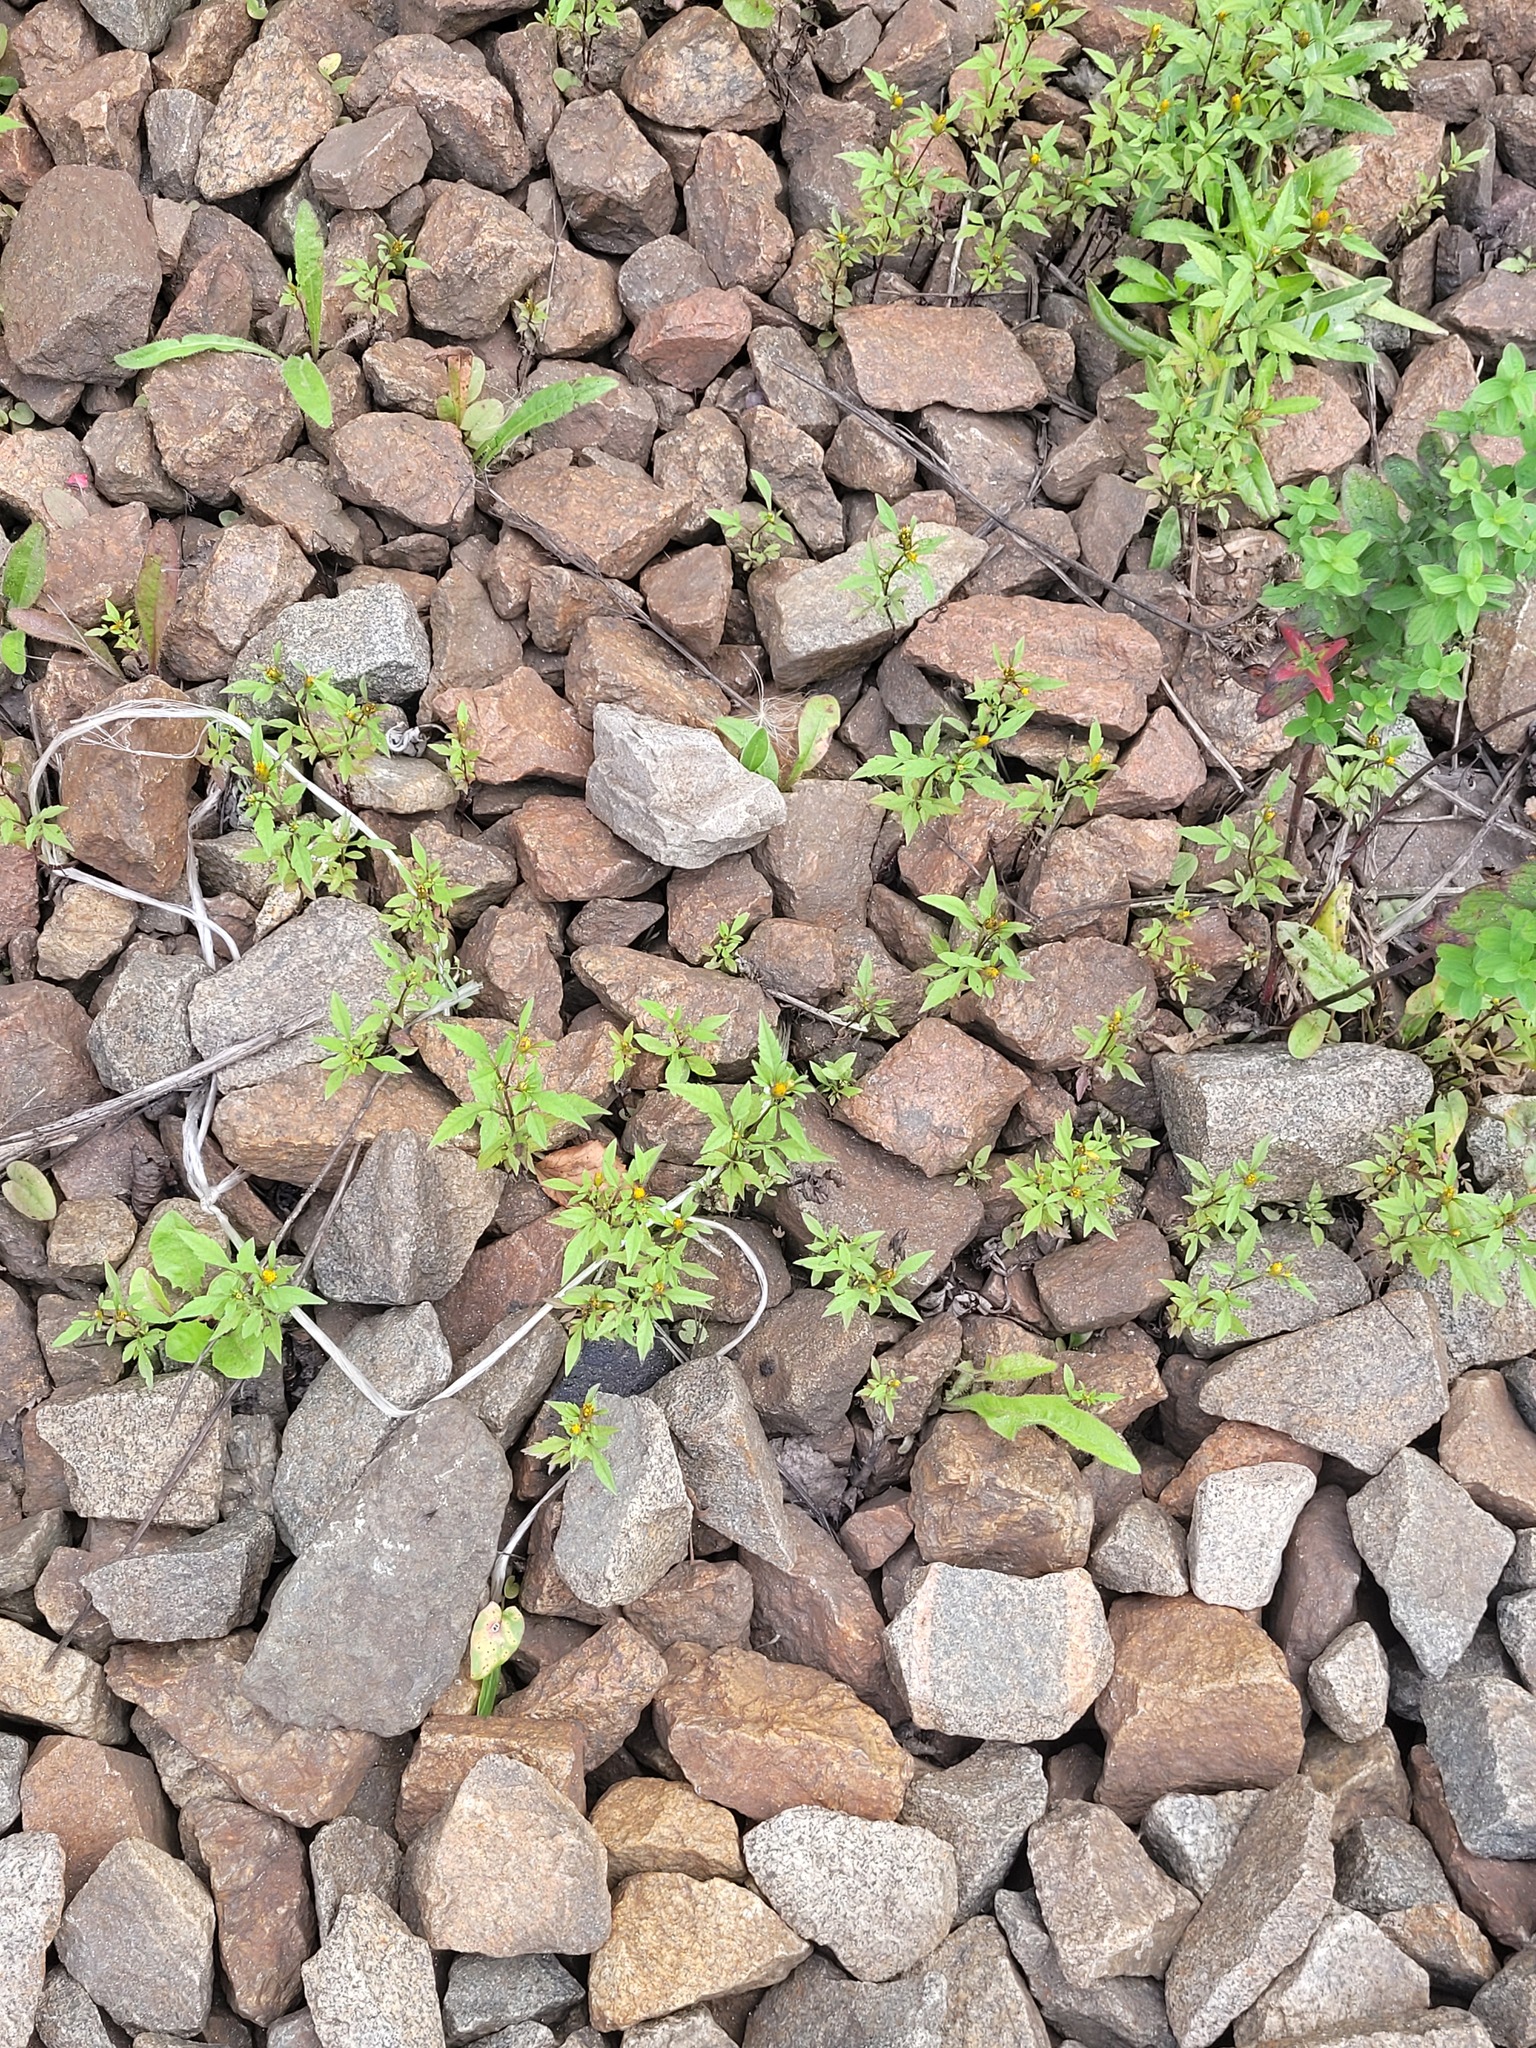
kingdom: Plantae
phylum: Tracheophyta
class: Magnoliopsida
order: Asterales
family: Asteraceae
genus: Bidens
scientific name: Bidens frondosa
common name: Beggarticks
